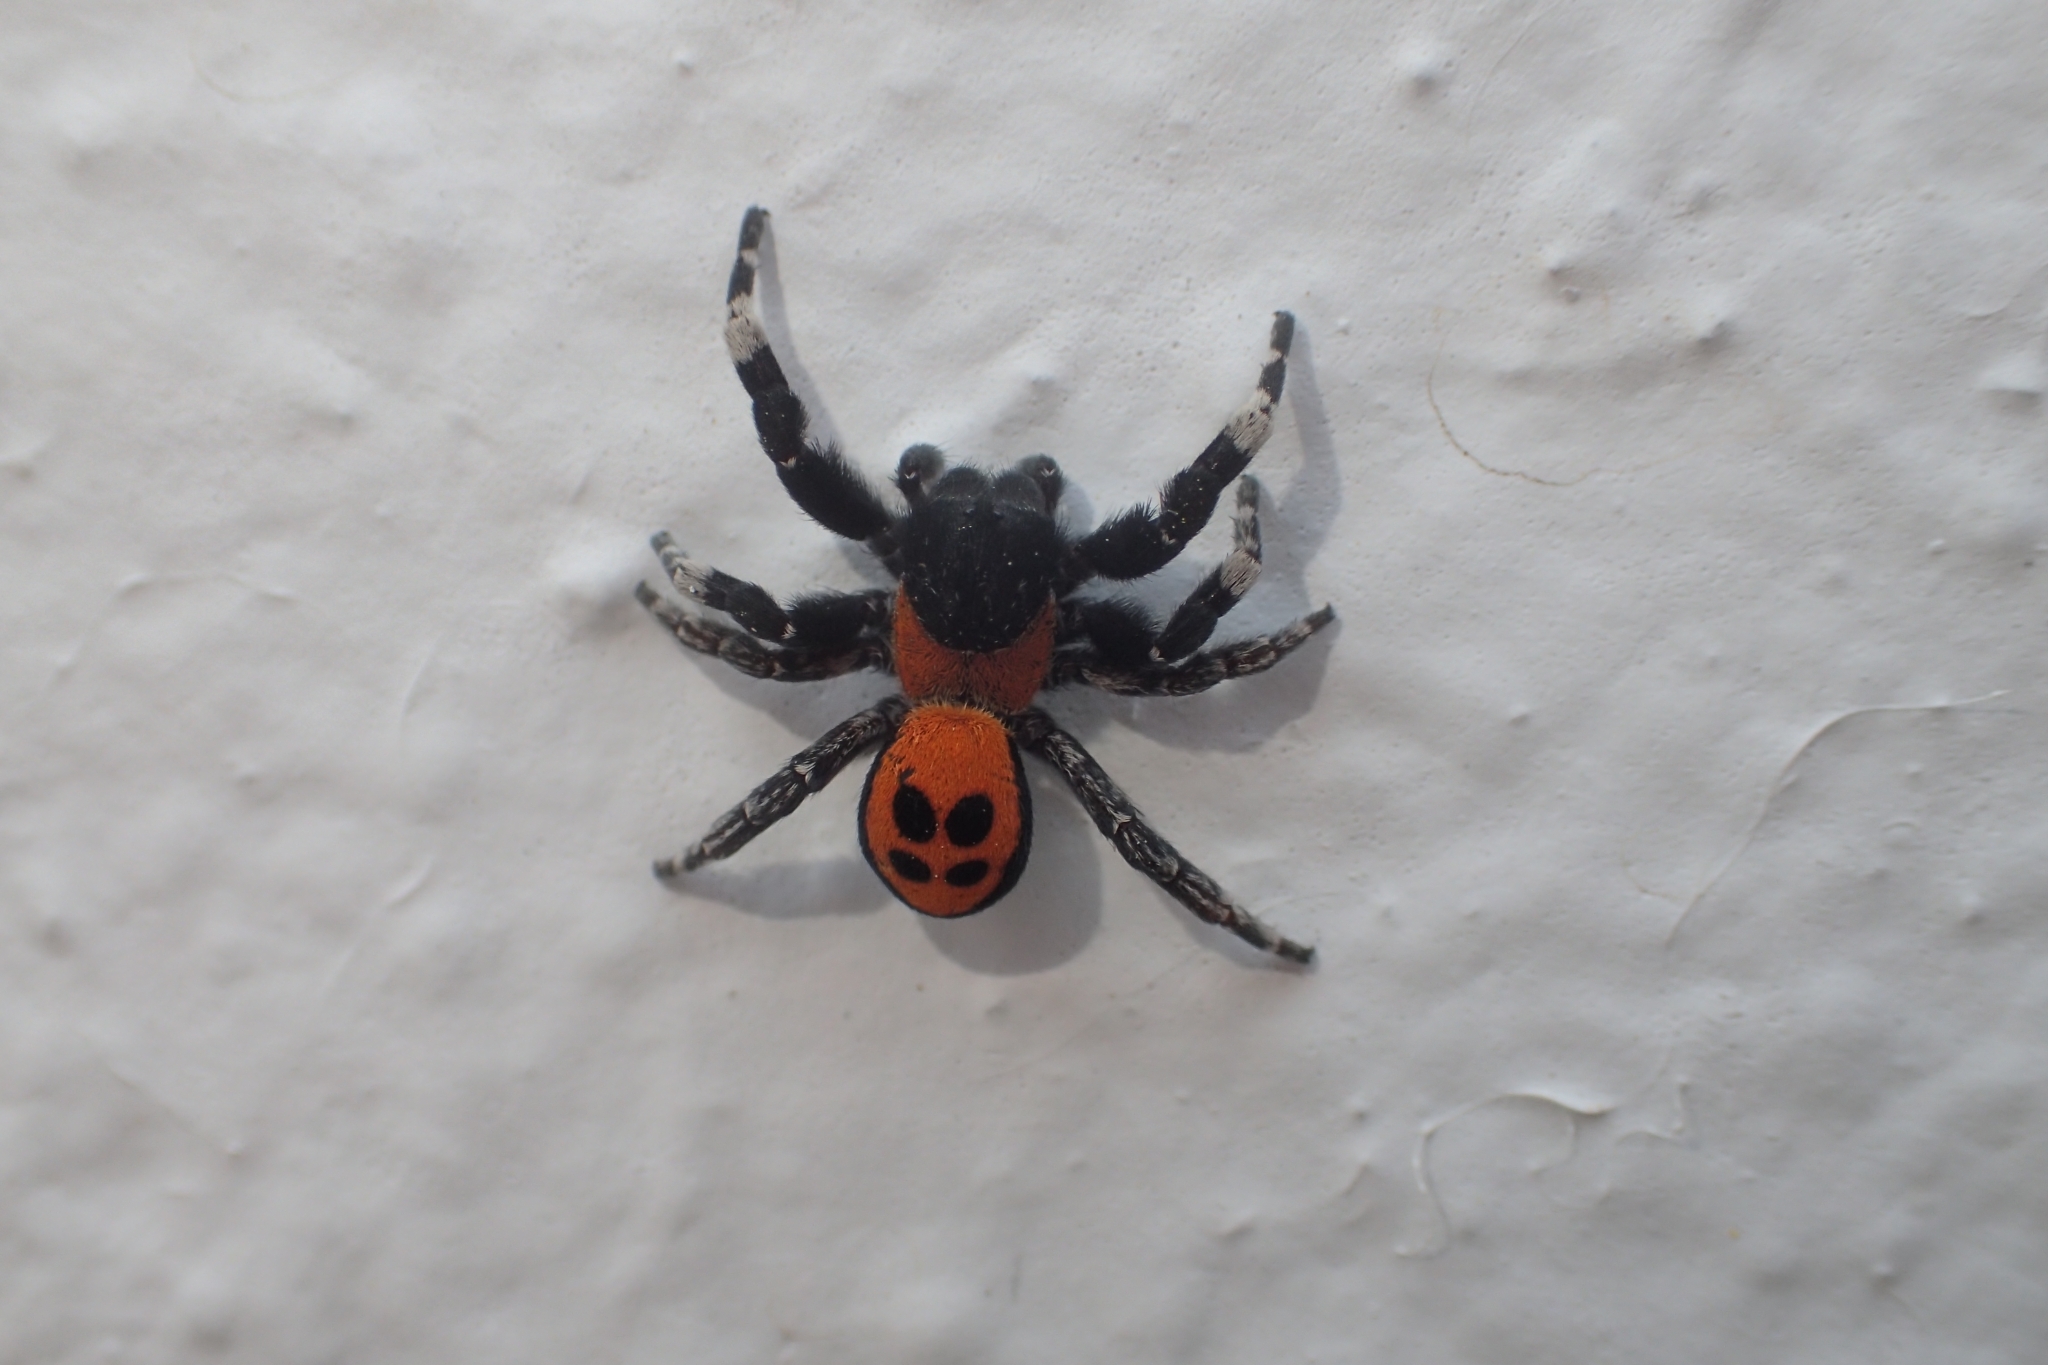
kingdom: Animalia
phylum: Arthropoda
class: Arachnida
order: Araneae
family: Eresidae
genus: Eresus
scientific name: Eresus
